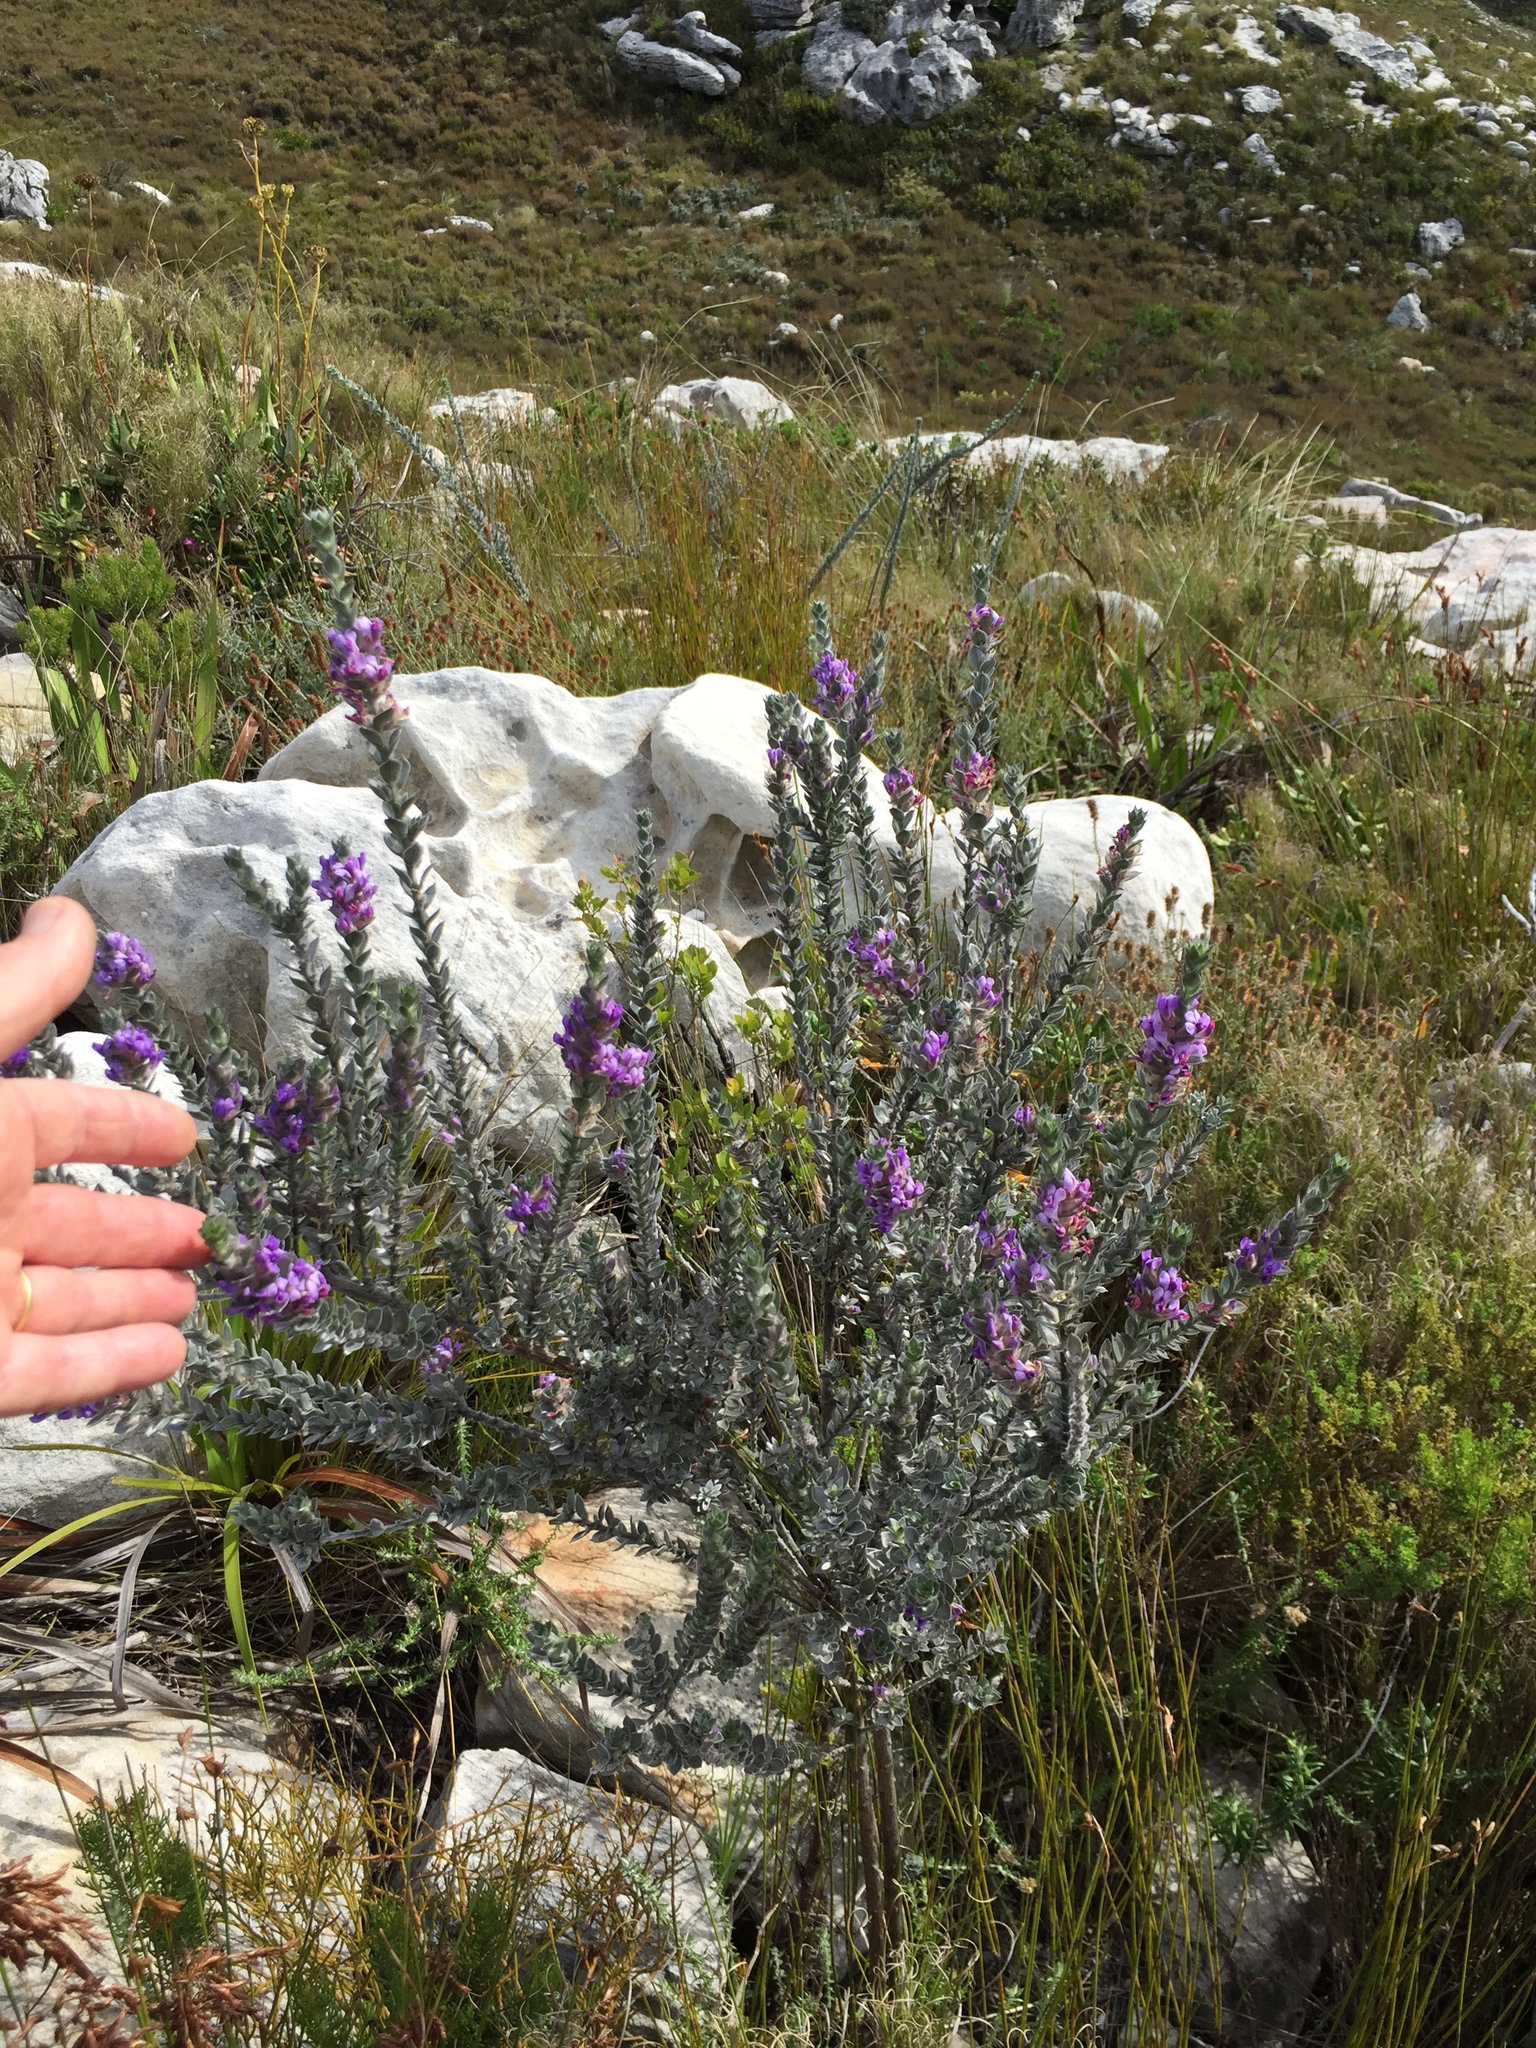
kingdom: Plantae
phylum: Tracheophyta
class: Magnoliopsida
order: Fabales
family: Fabaceae
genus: Amphithalea
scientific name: Amphithalea imbricata
